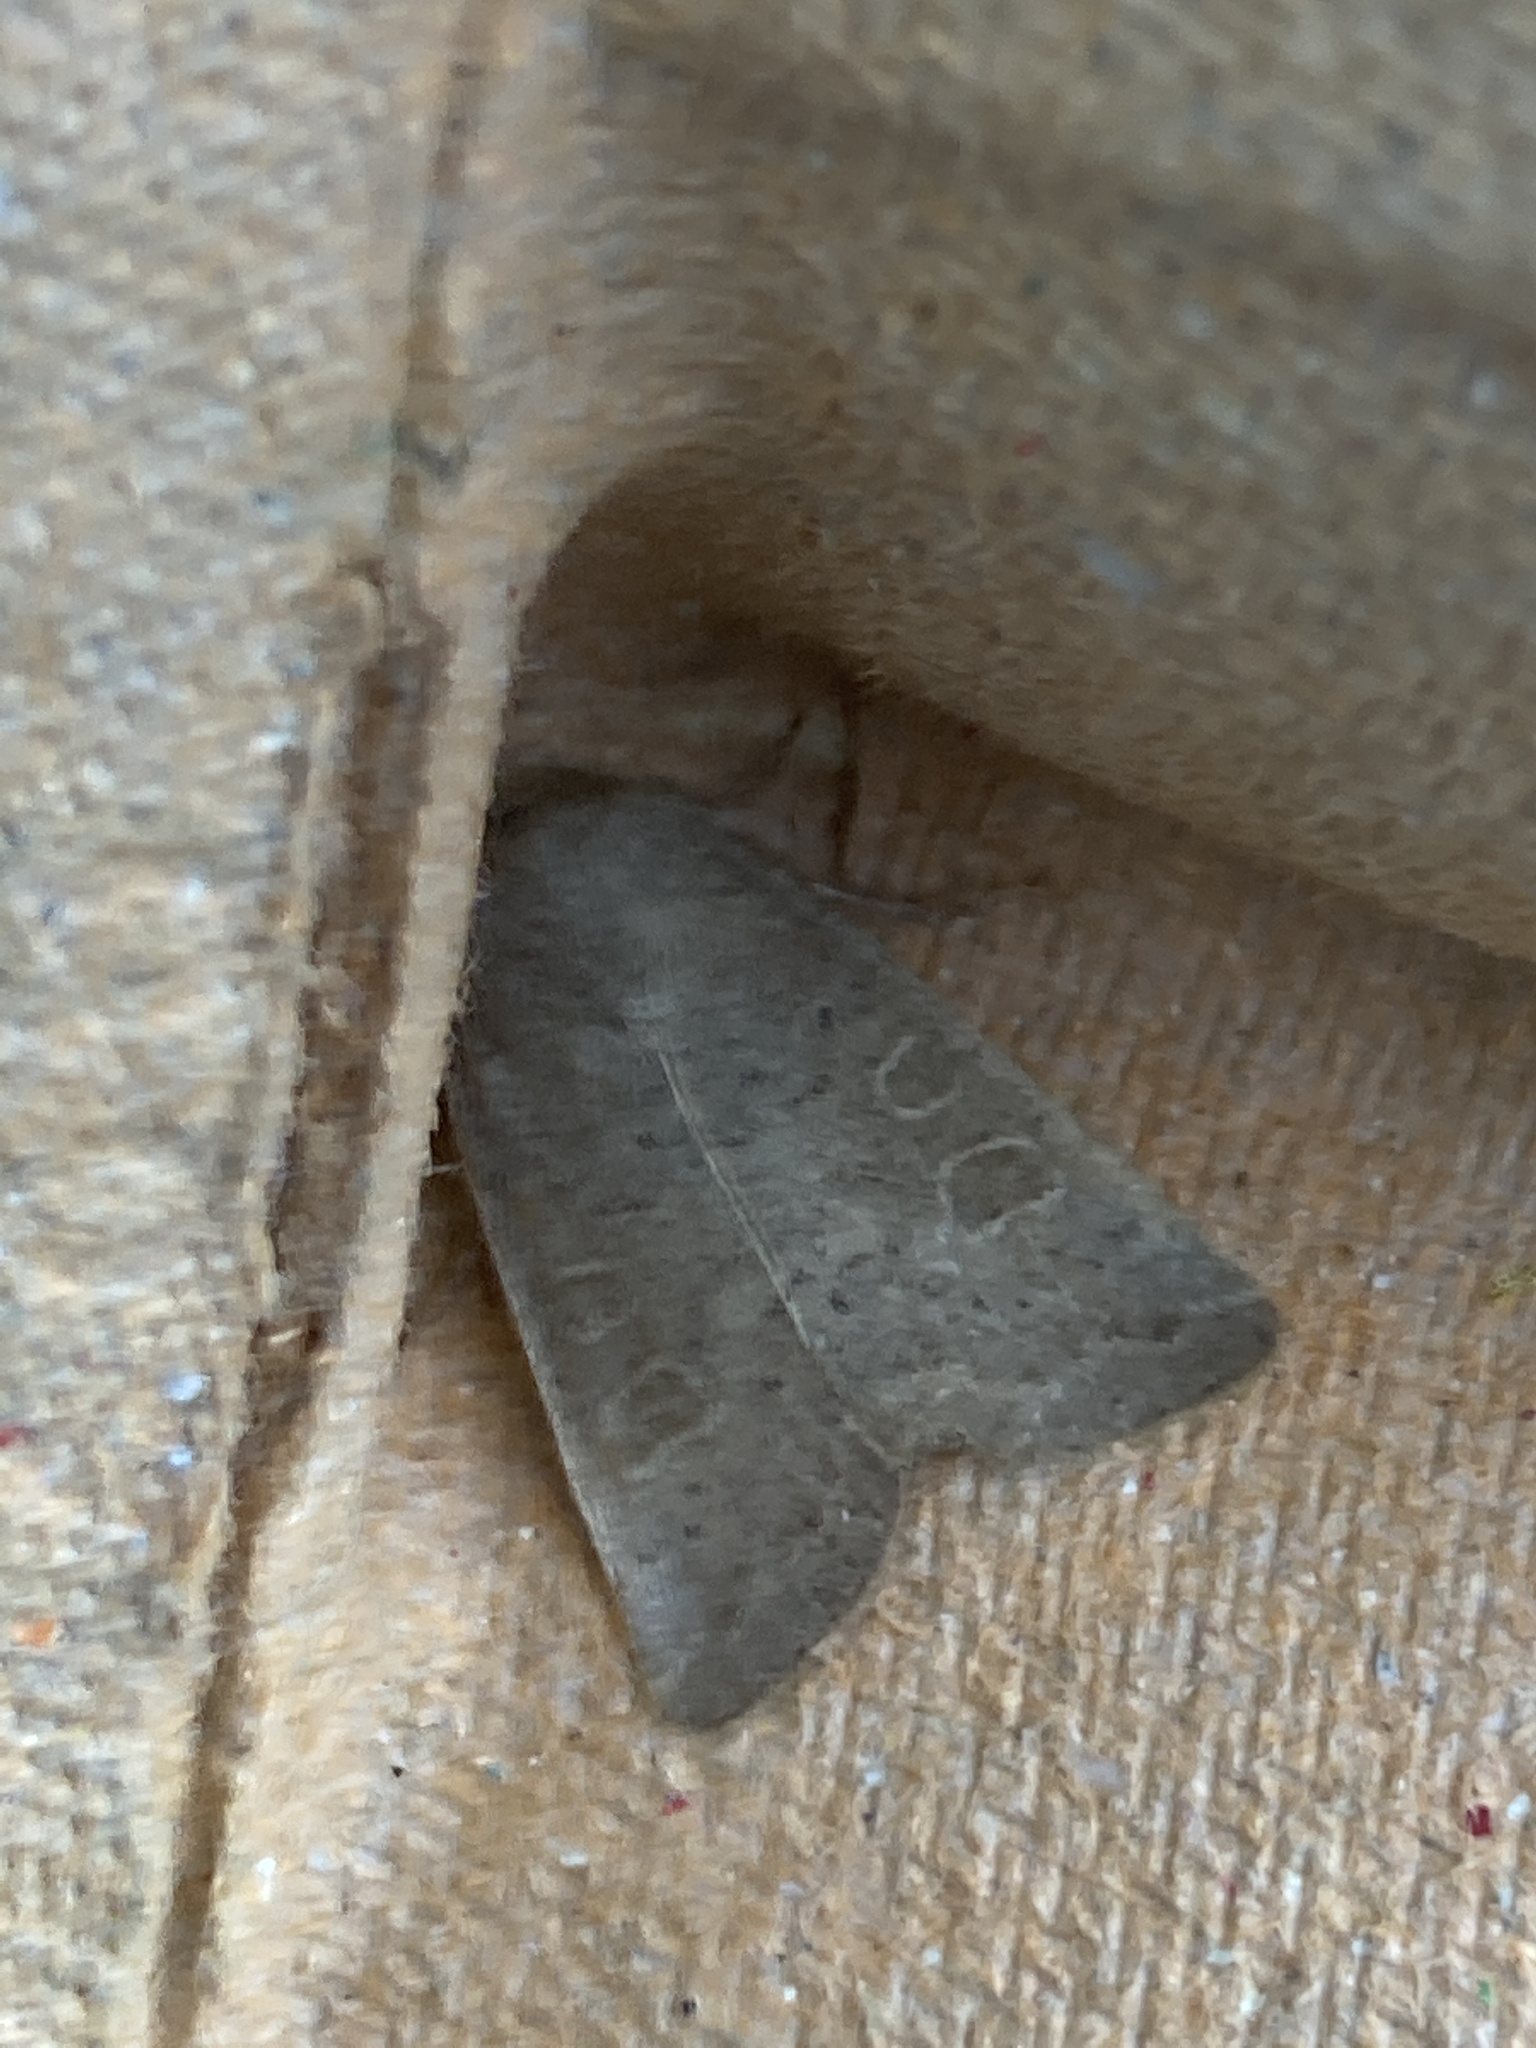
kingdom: Animalia
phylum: Arthropoda
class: Insecta
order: Lepidoptera
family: Noctuidae
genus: Hoplodrina
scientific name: Hoplodrina ambigua
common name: Vine's rustic
